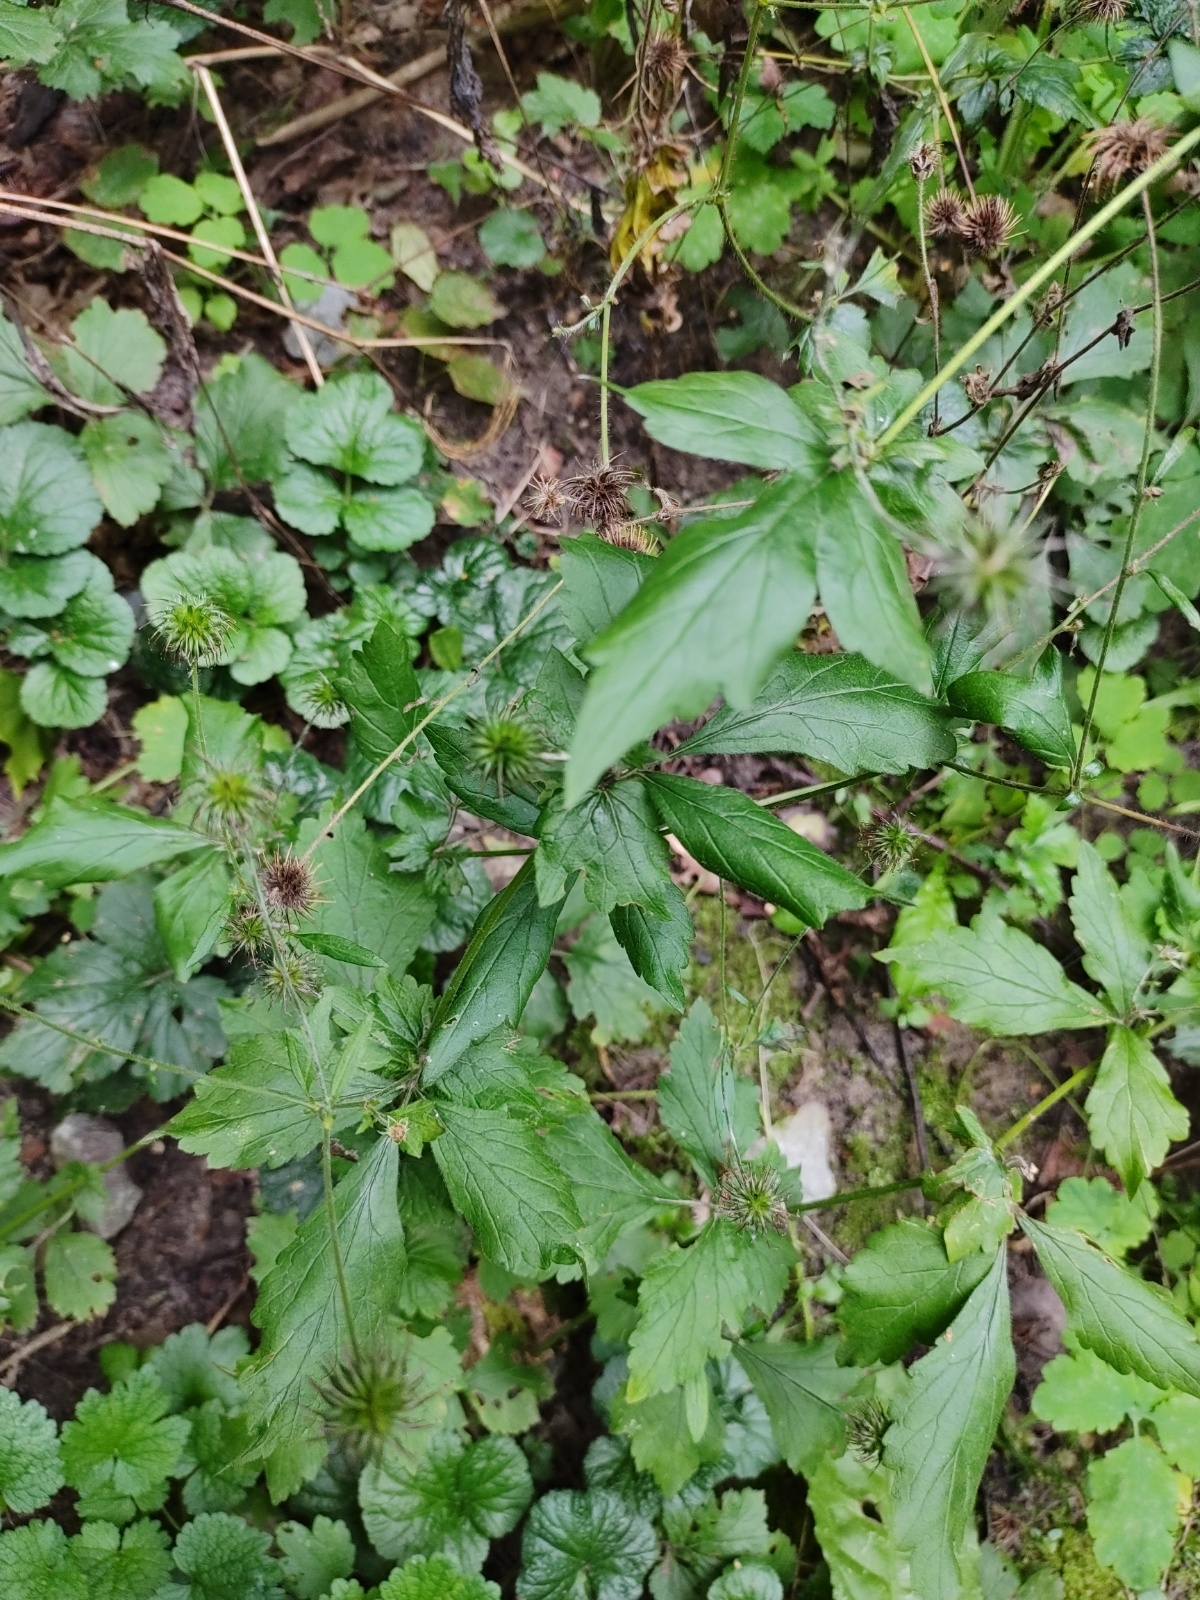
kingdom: Plantae
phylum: Tracheophyta
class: Magnoliopsida
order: Rosales
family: Rosaceae
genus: Geum
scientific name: Geum urbanum
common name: Wood avens
